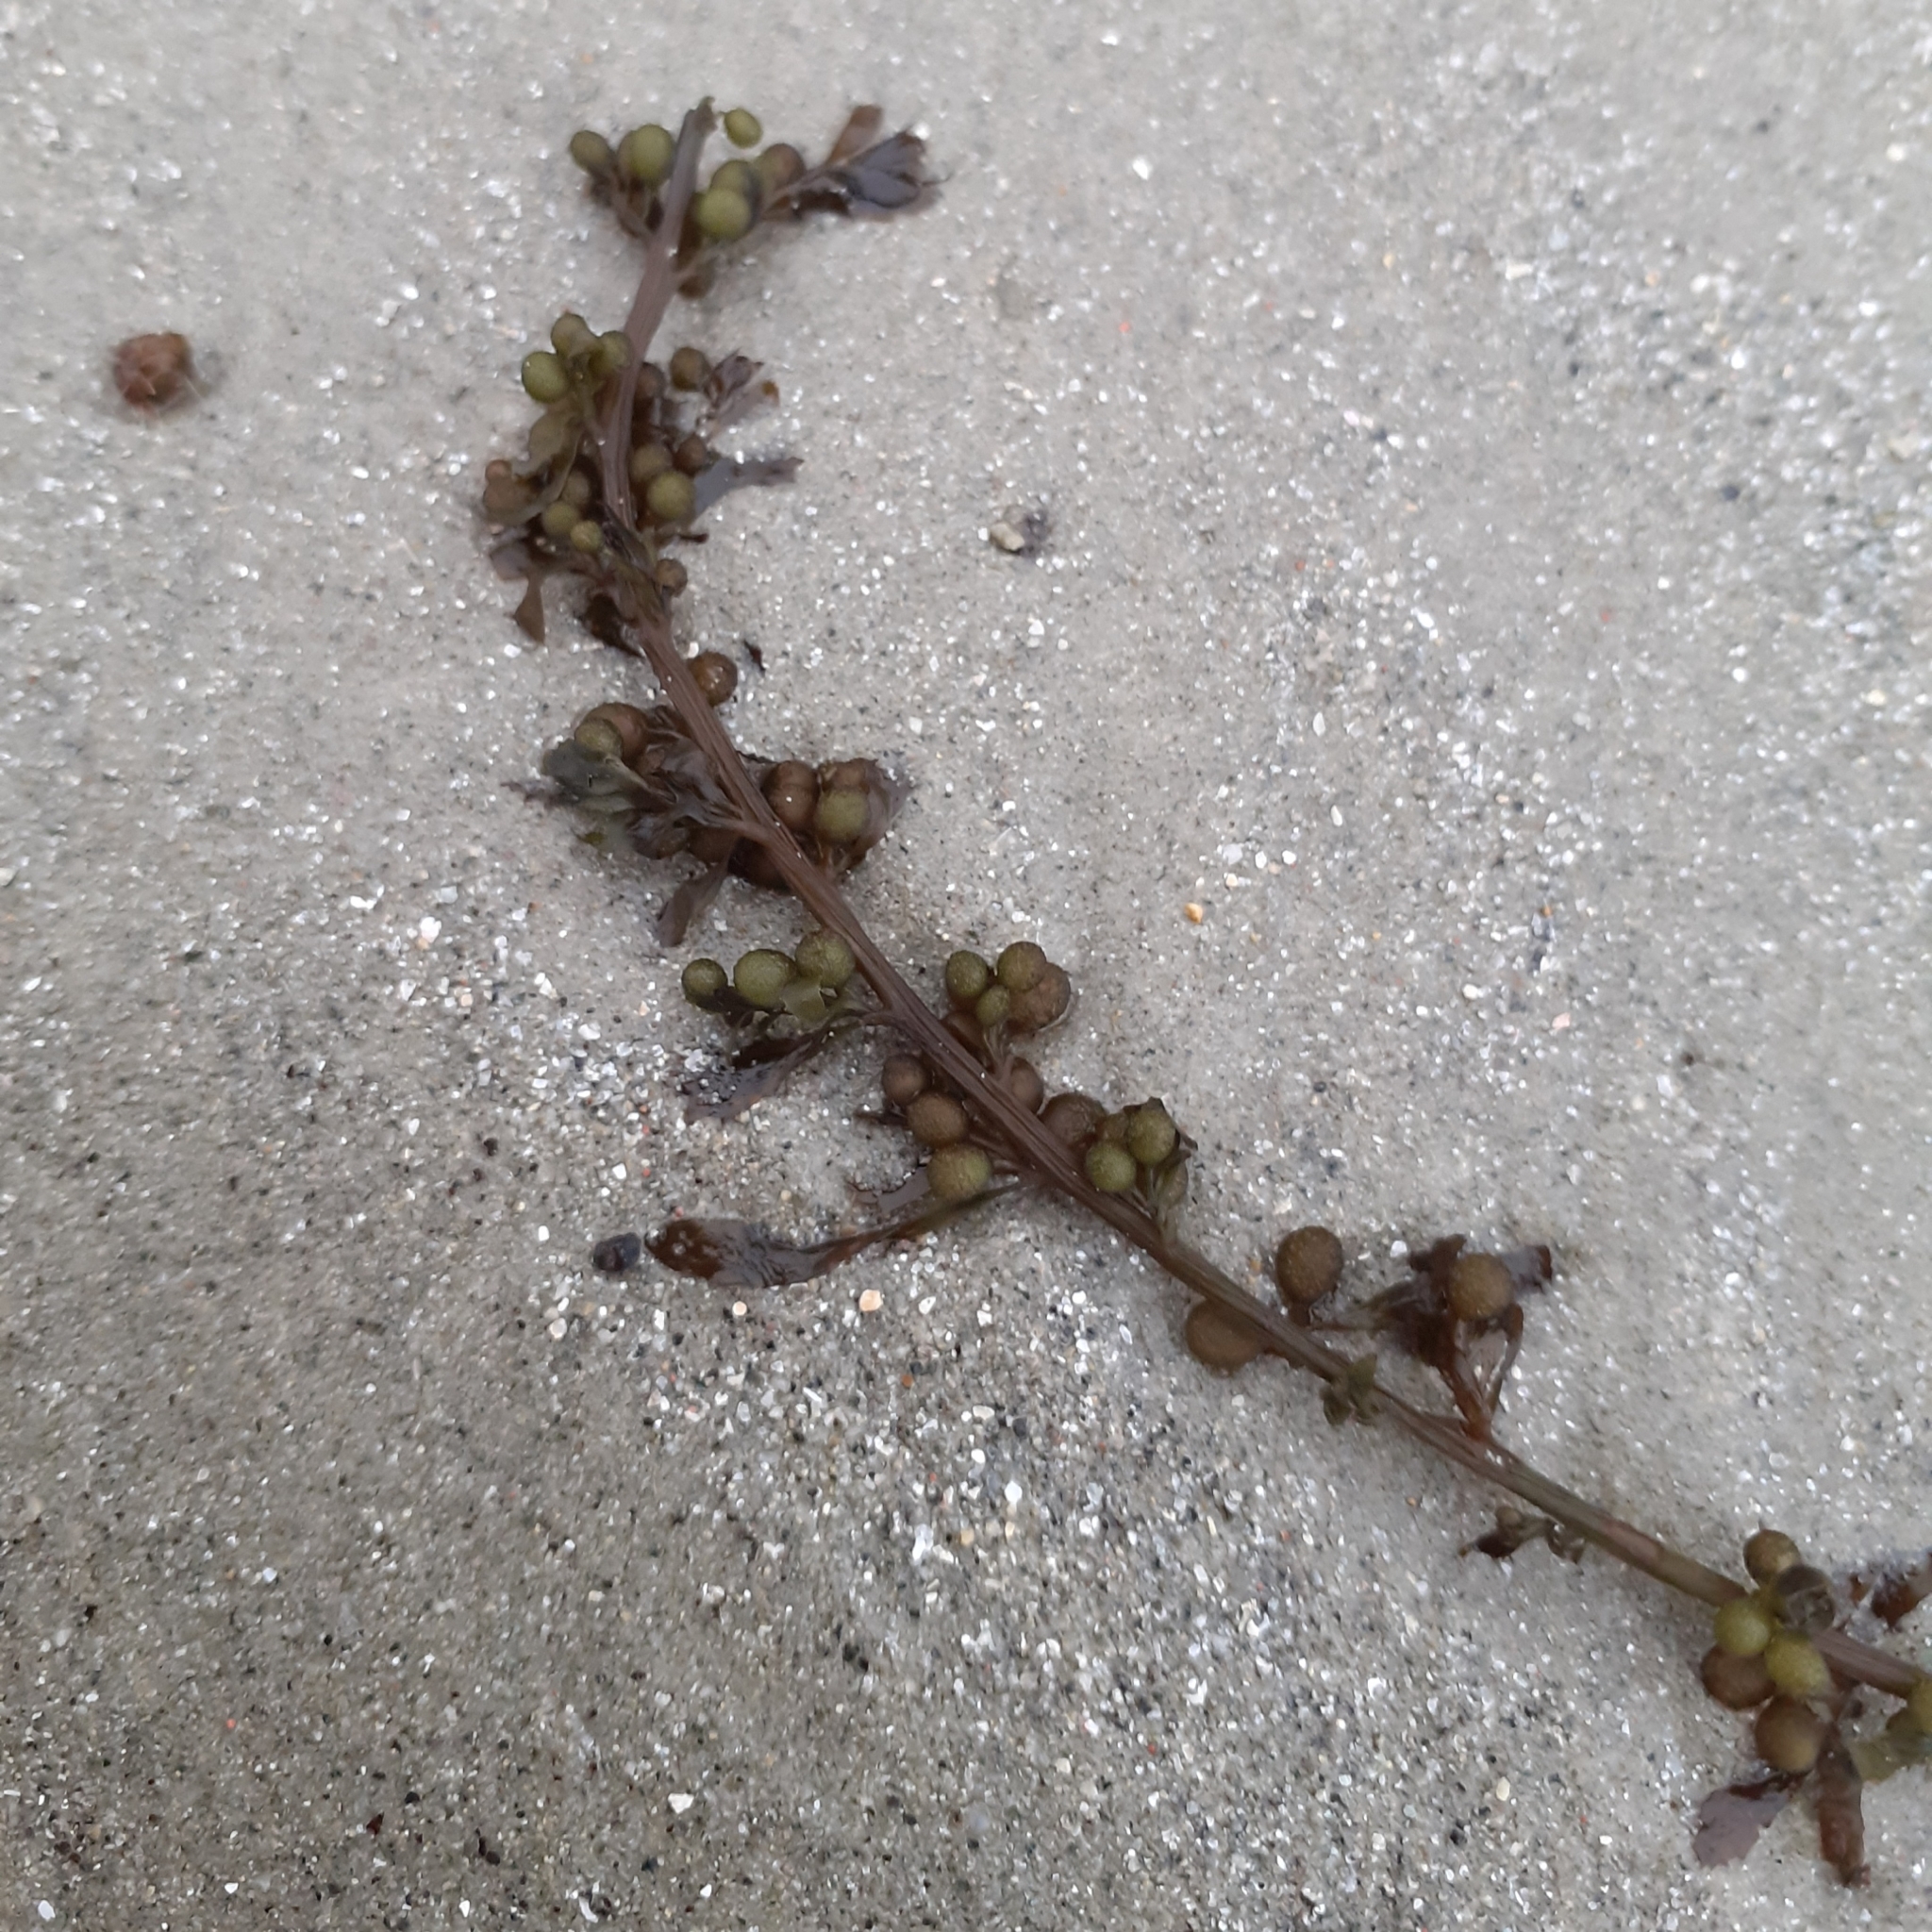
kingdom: Chromista
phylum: Ochrophyta
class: Phaeophyceae
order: Fucales
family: Sargassaceae
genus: Sargassum
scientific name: Sargassum muticum
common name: Japweed
